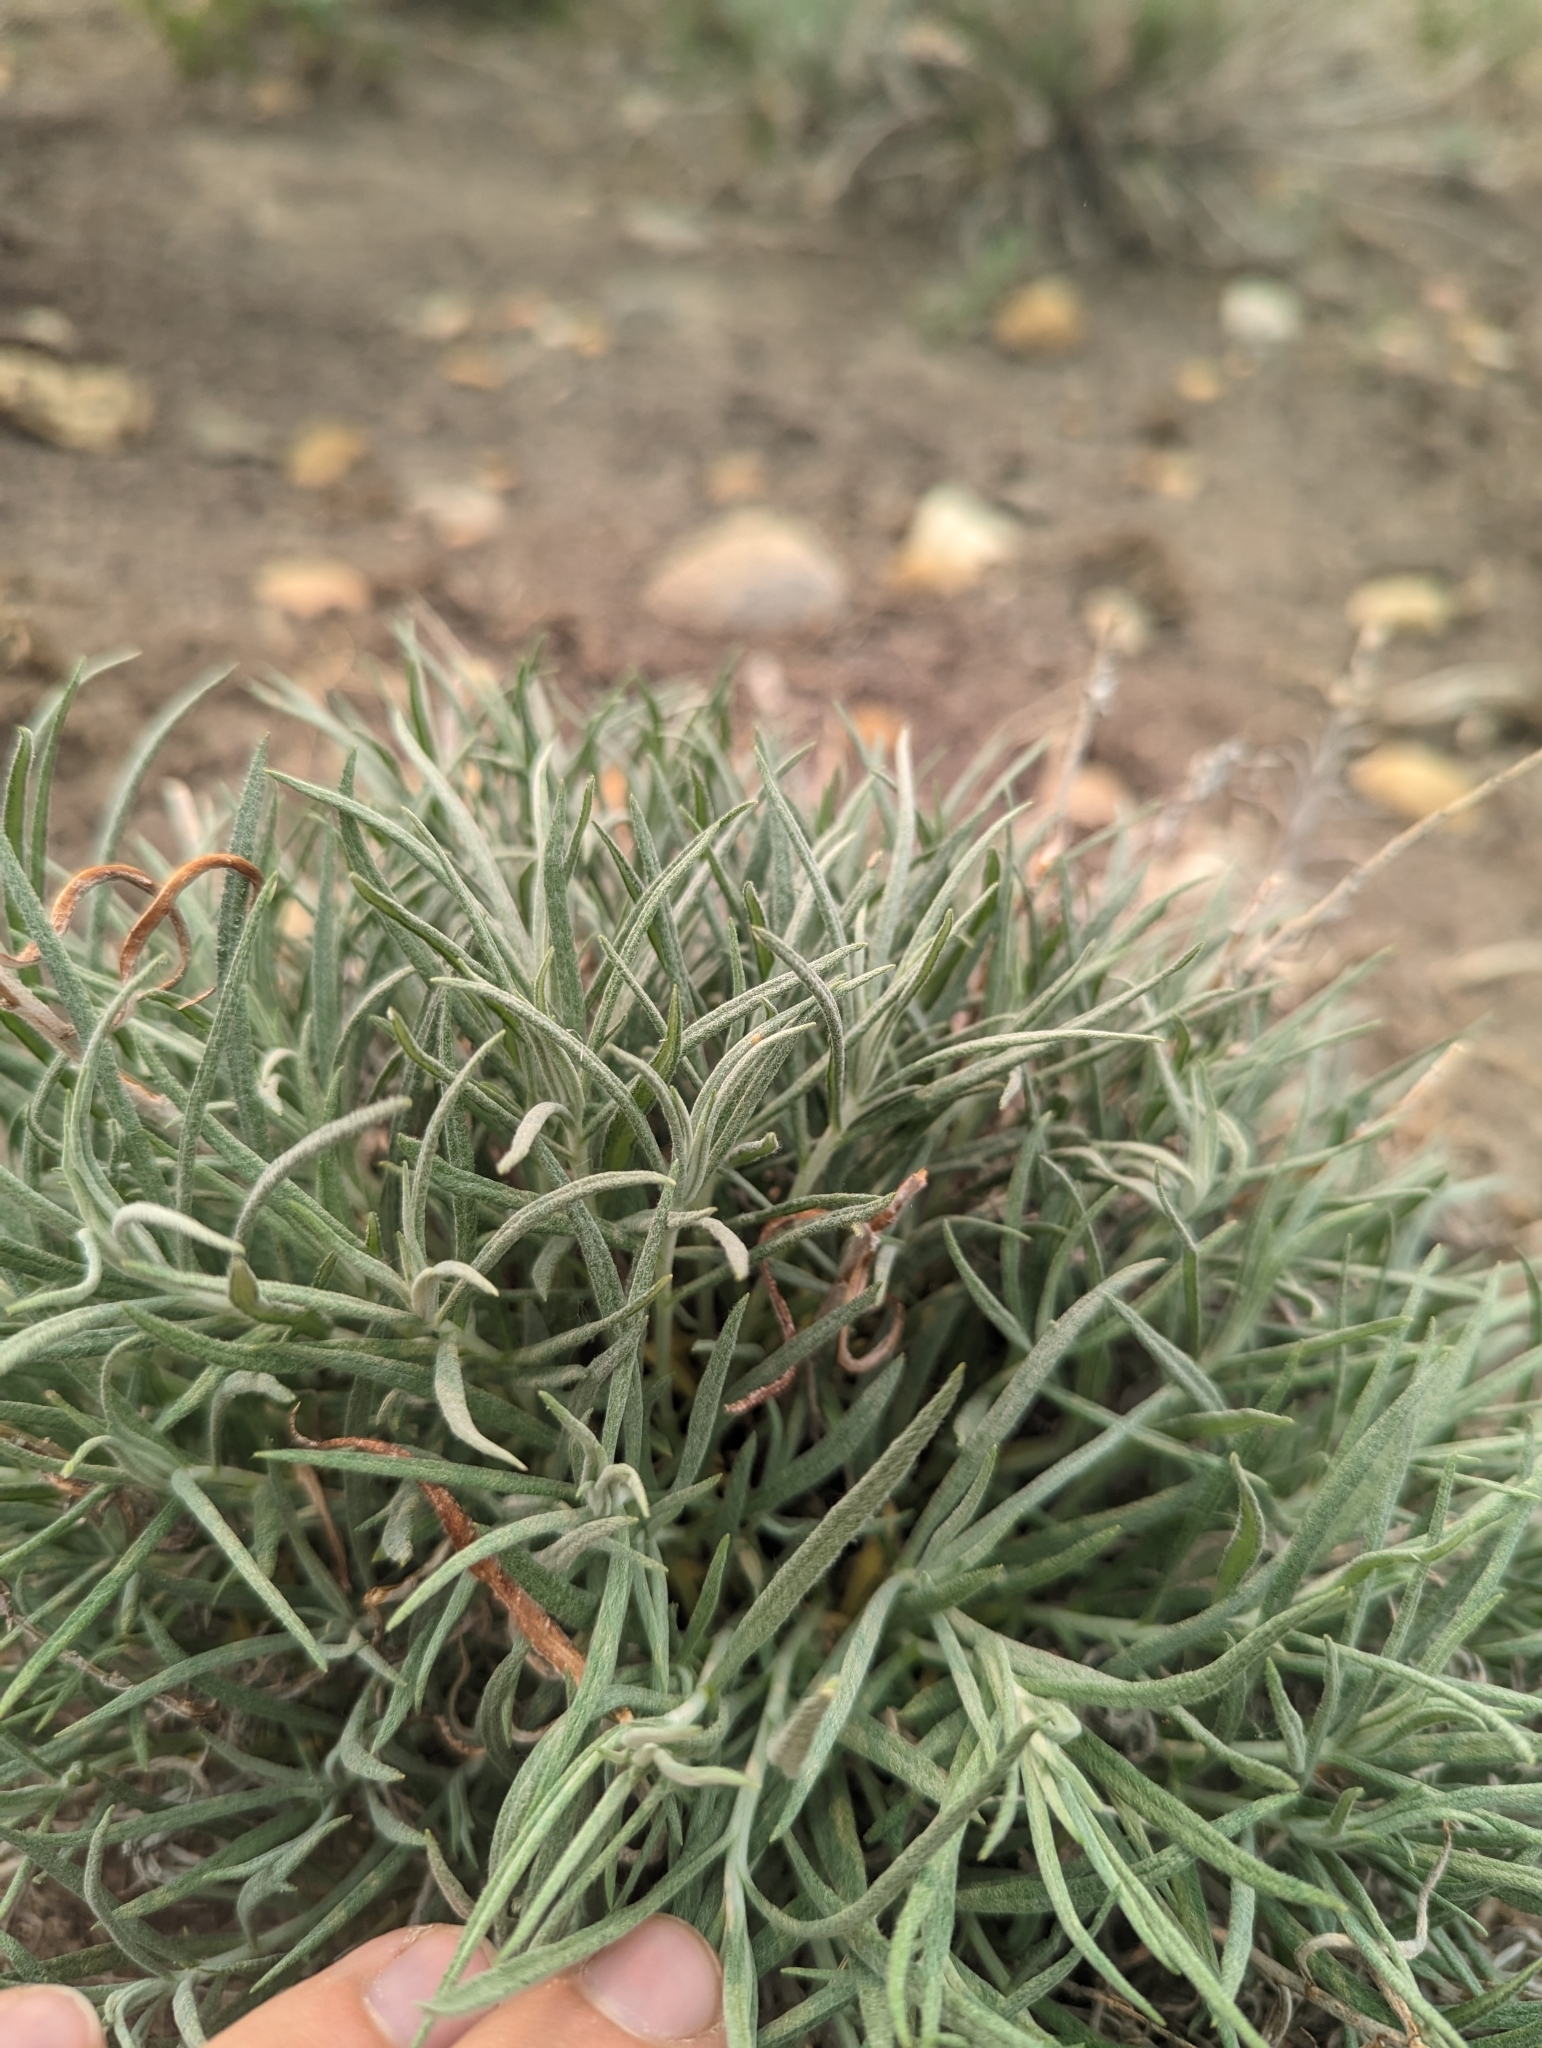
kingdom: Plantae
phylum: Tracheophyta
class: Magnoliopsida
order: Asterales
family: Asteraceae
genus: Artemisia
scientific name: Artemisia longifolia
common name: Long-leaved mugwort
